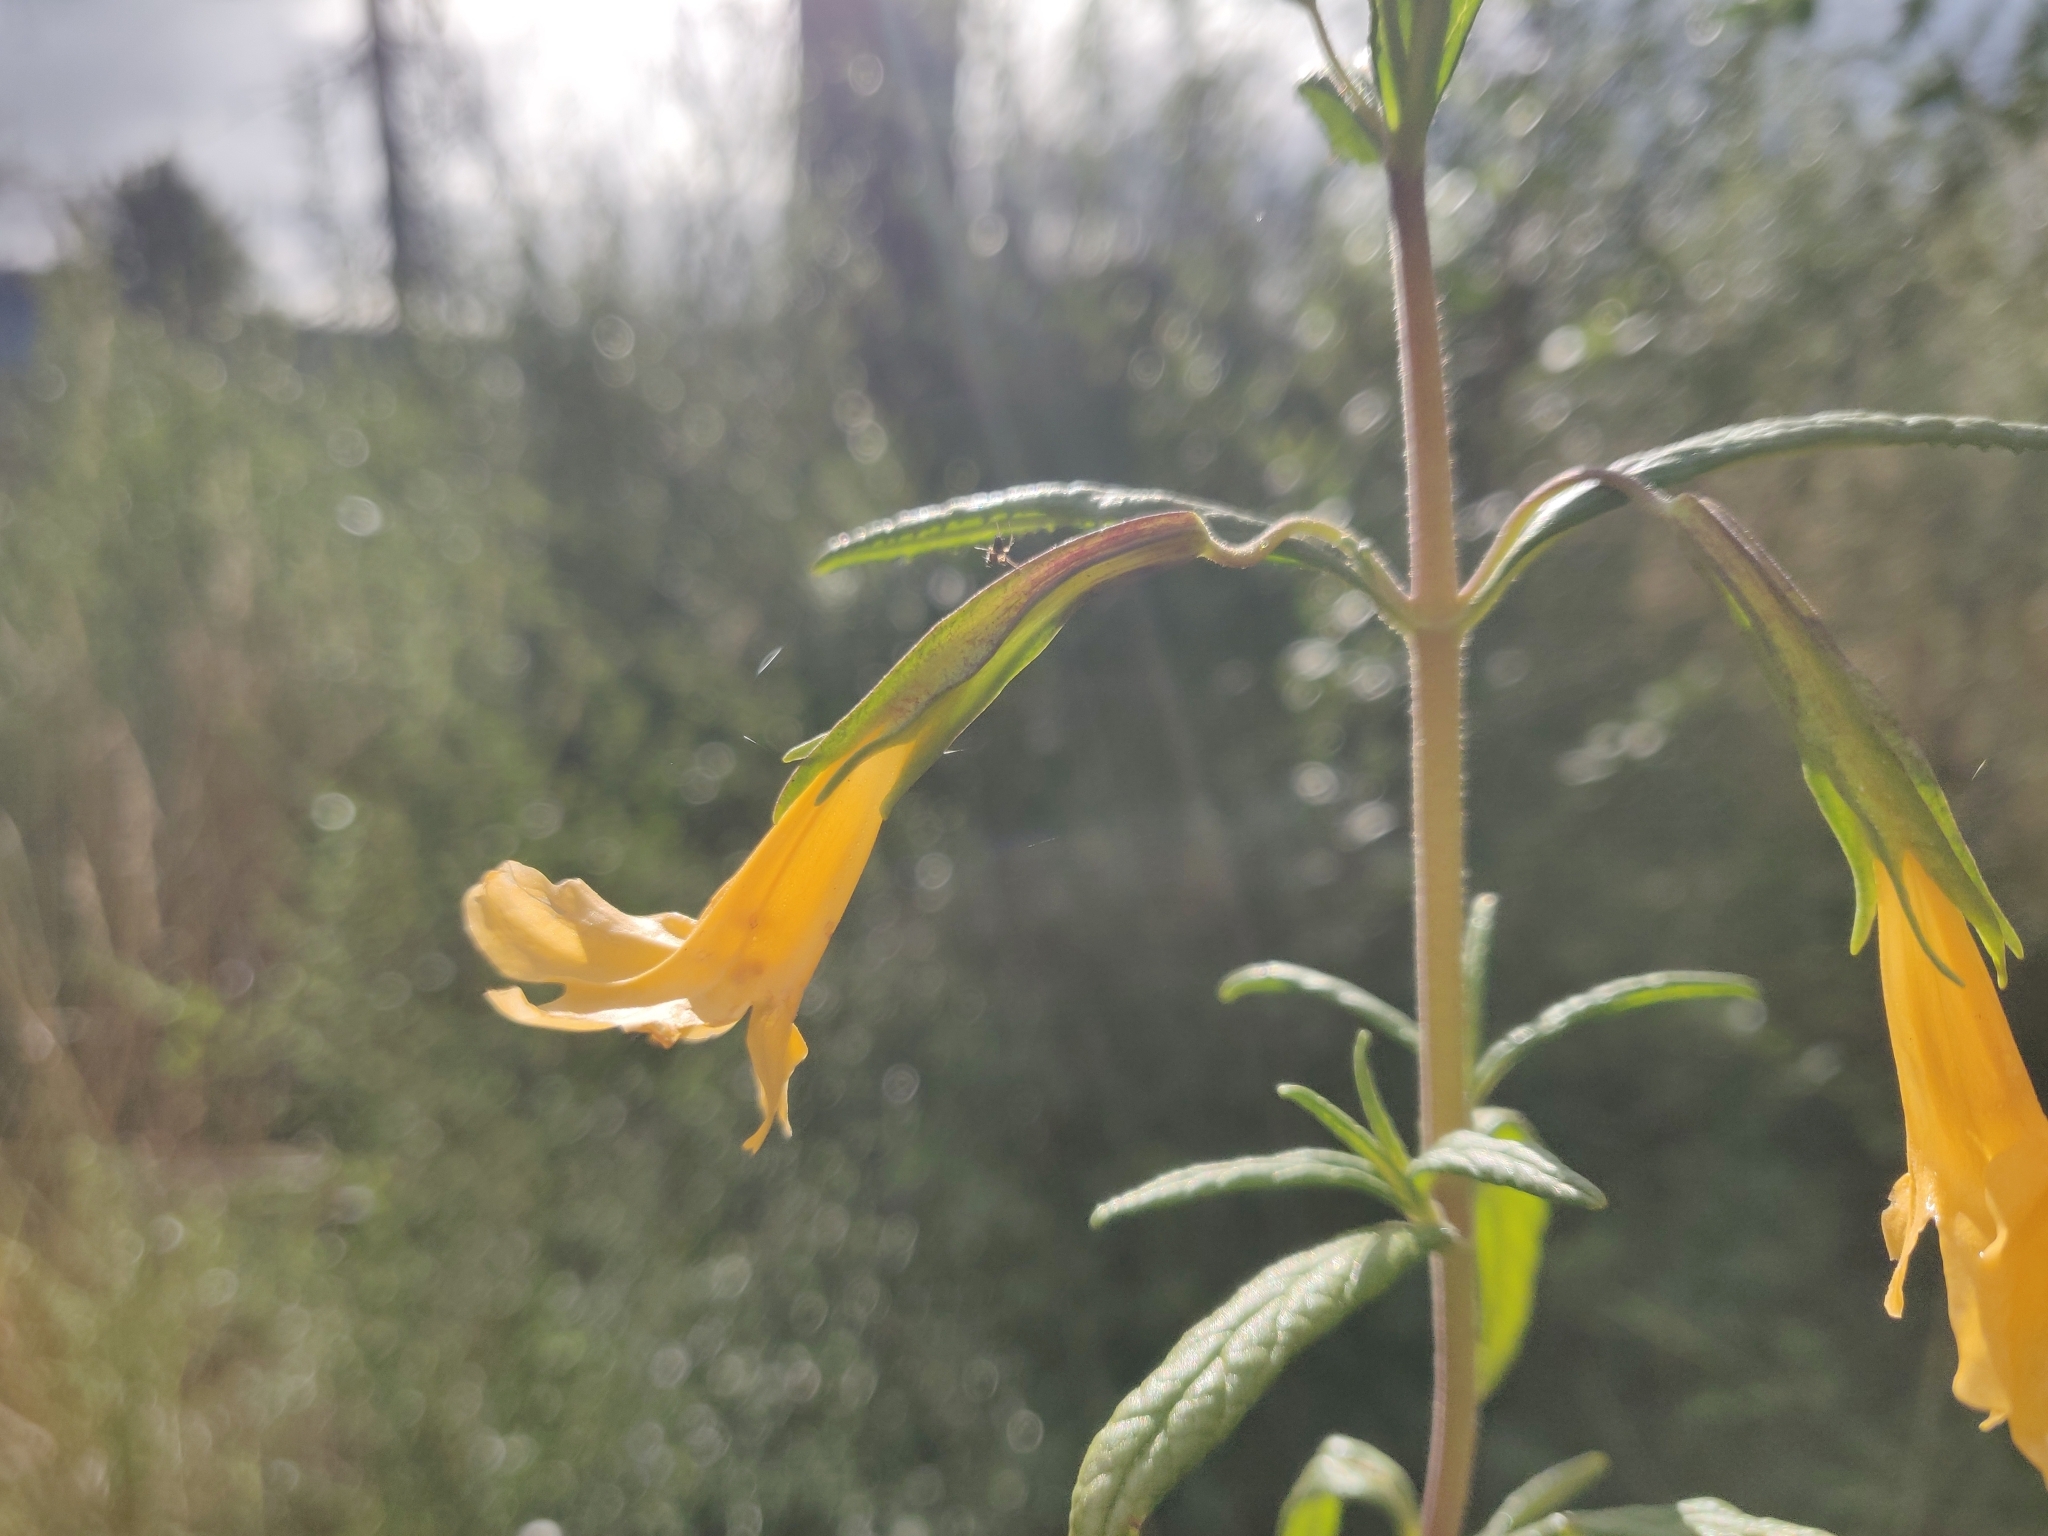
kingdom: Plantae
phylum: Tracheophyta
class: Magnoliopsida
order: Lamiales
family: Phrymaceae
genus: Diplacus
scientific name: Diplacus aurantiacus
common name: Bush monkey-flower
